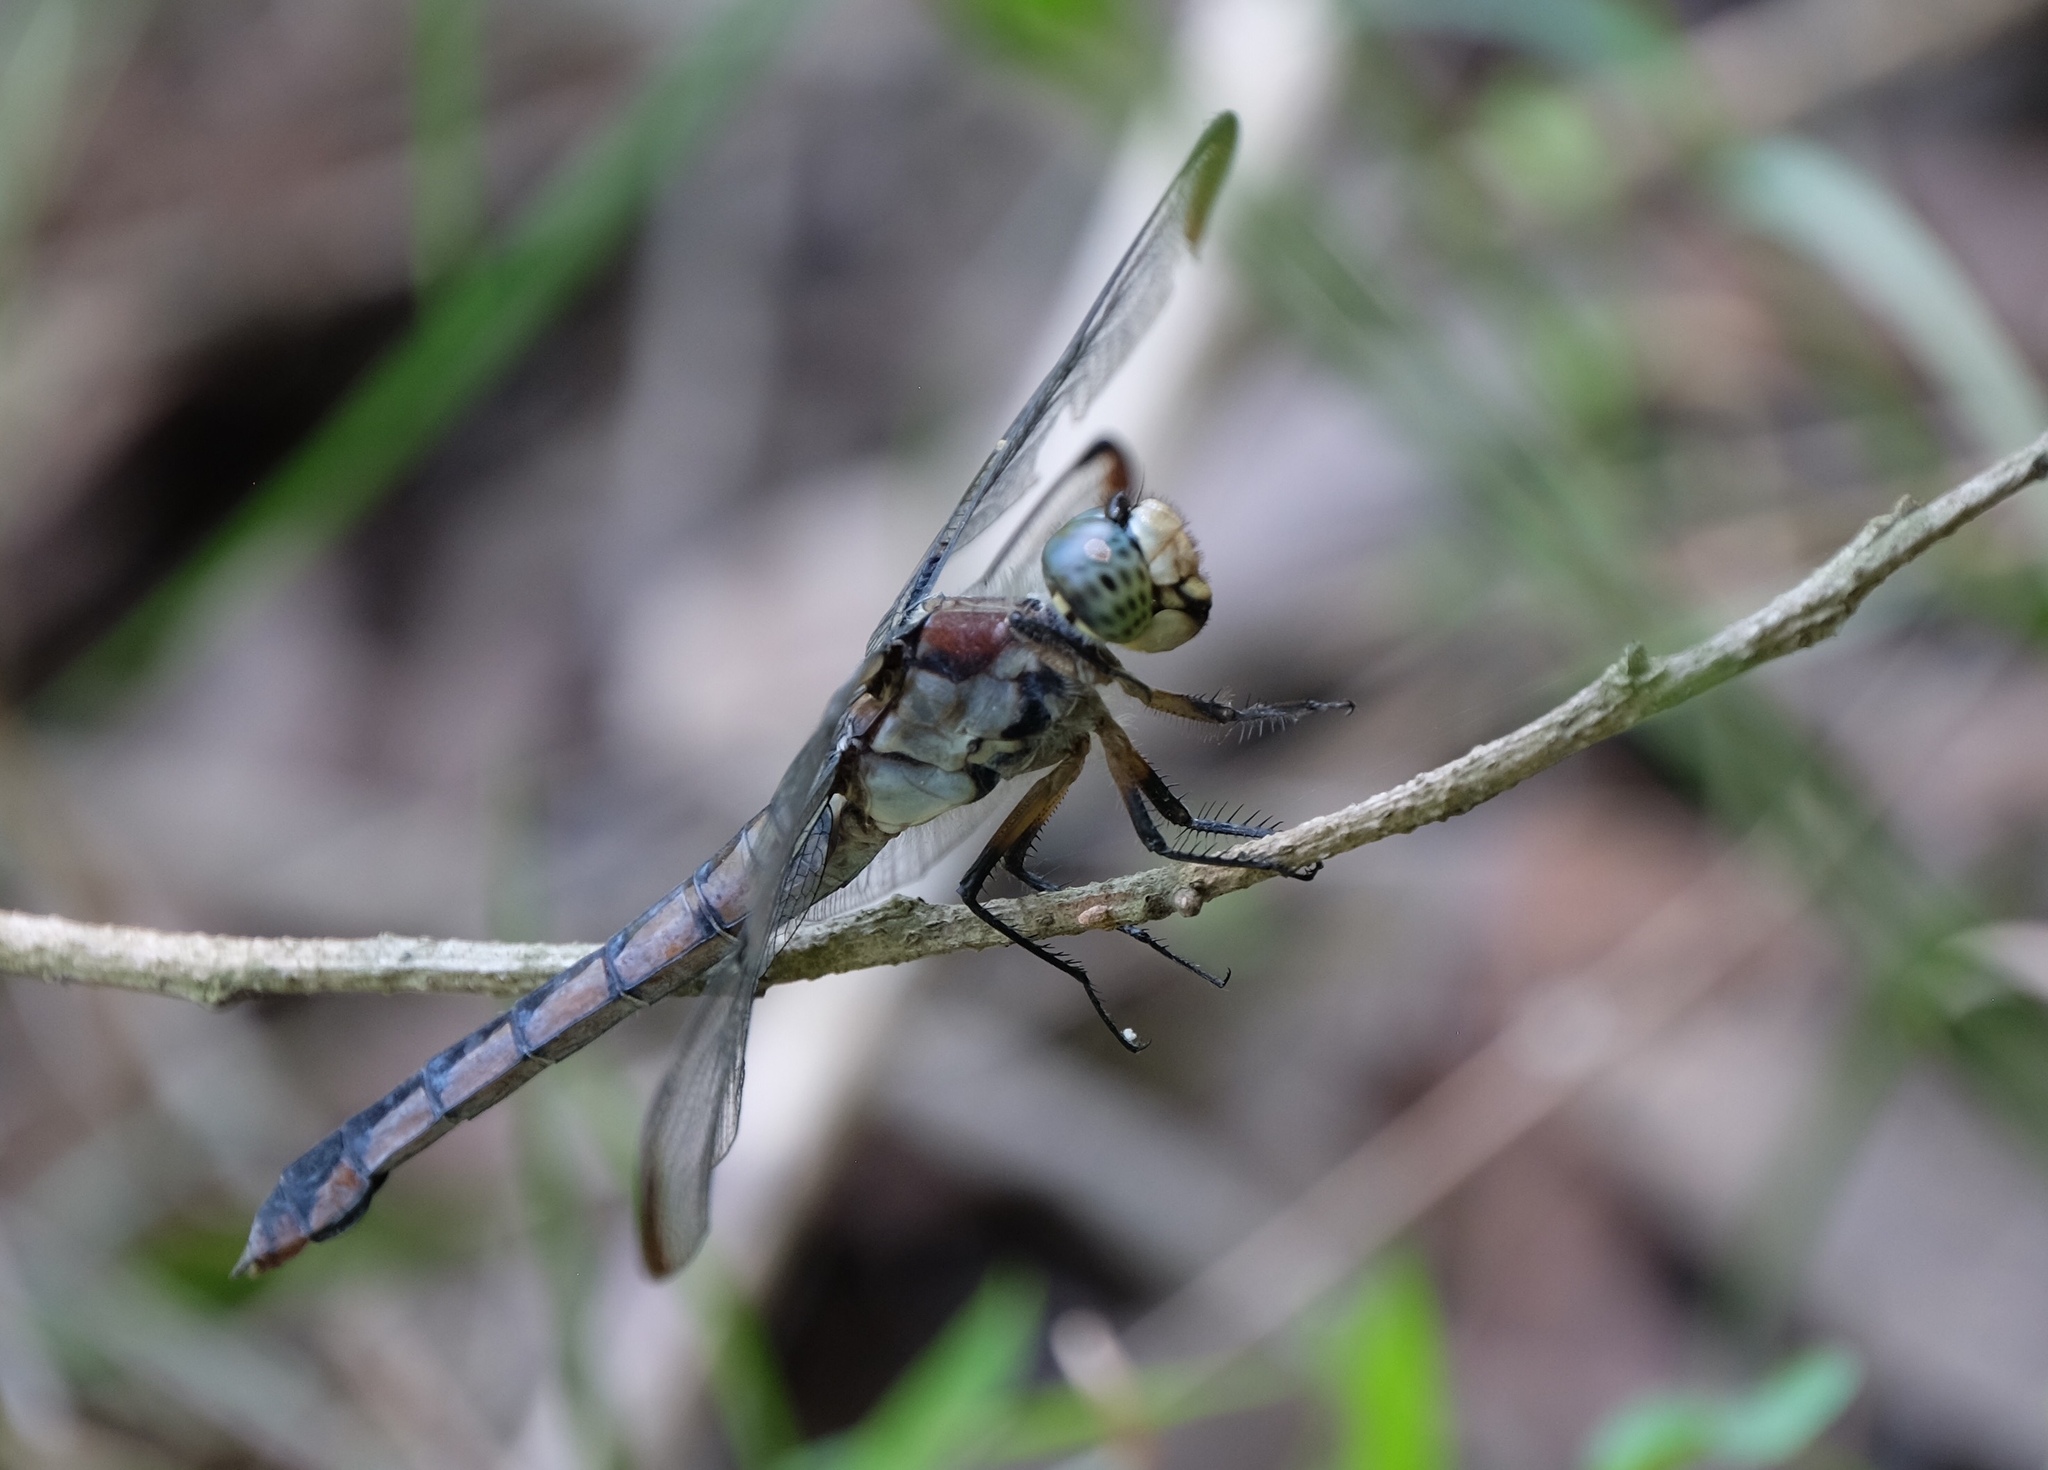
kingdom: Animalia
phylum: Arthropoda
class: Insecta
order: Odonata
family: Libellulidae
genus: Libellula
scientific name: Libellula vibrans
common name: Great blue skimmer
